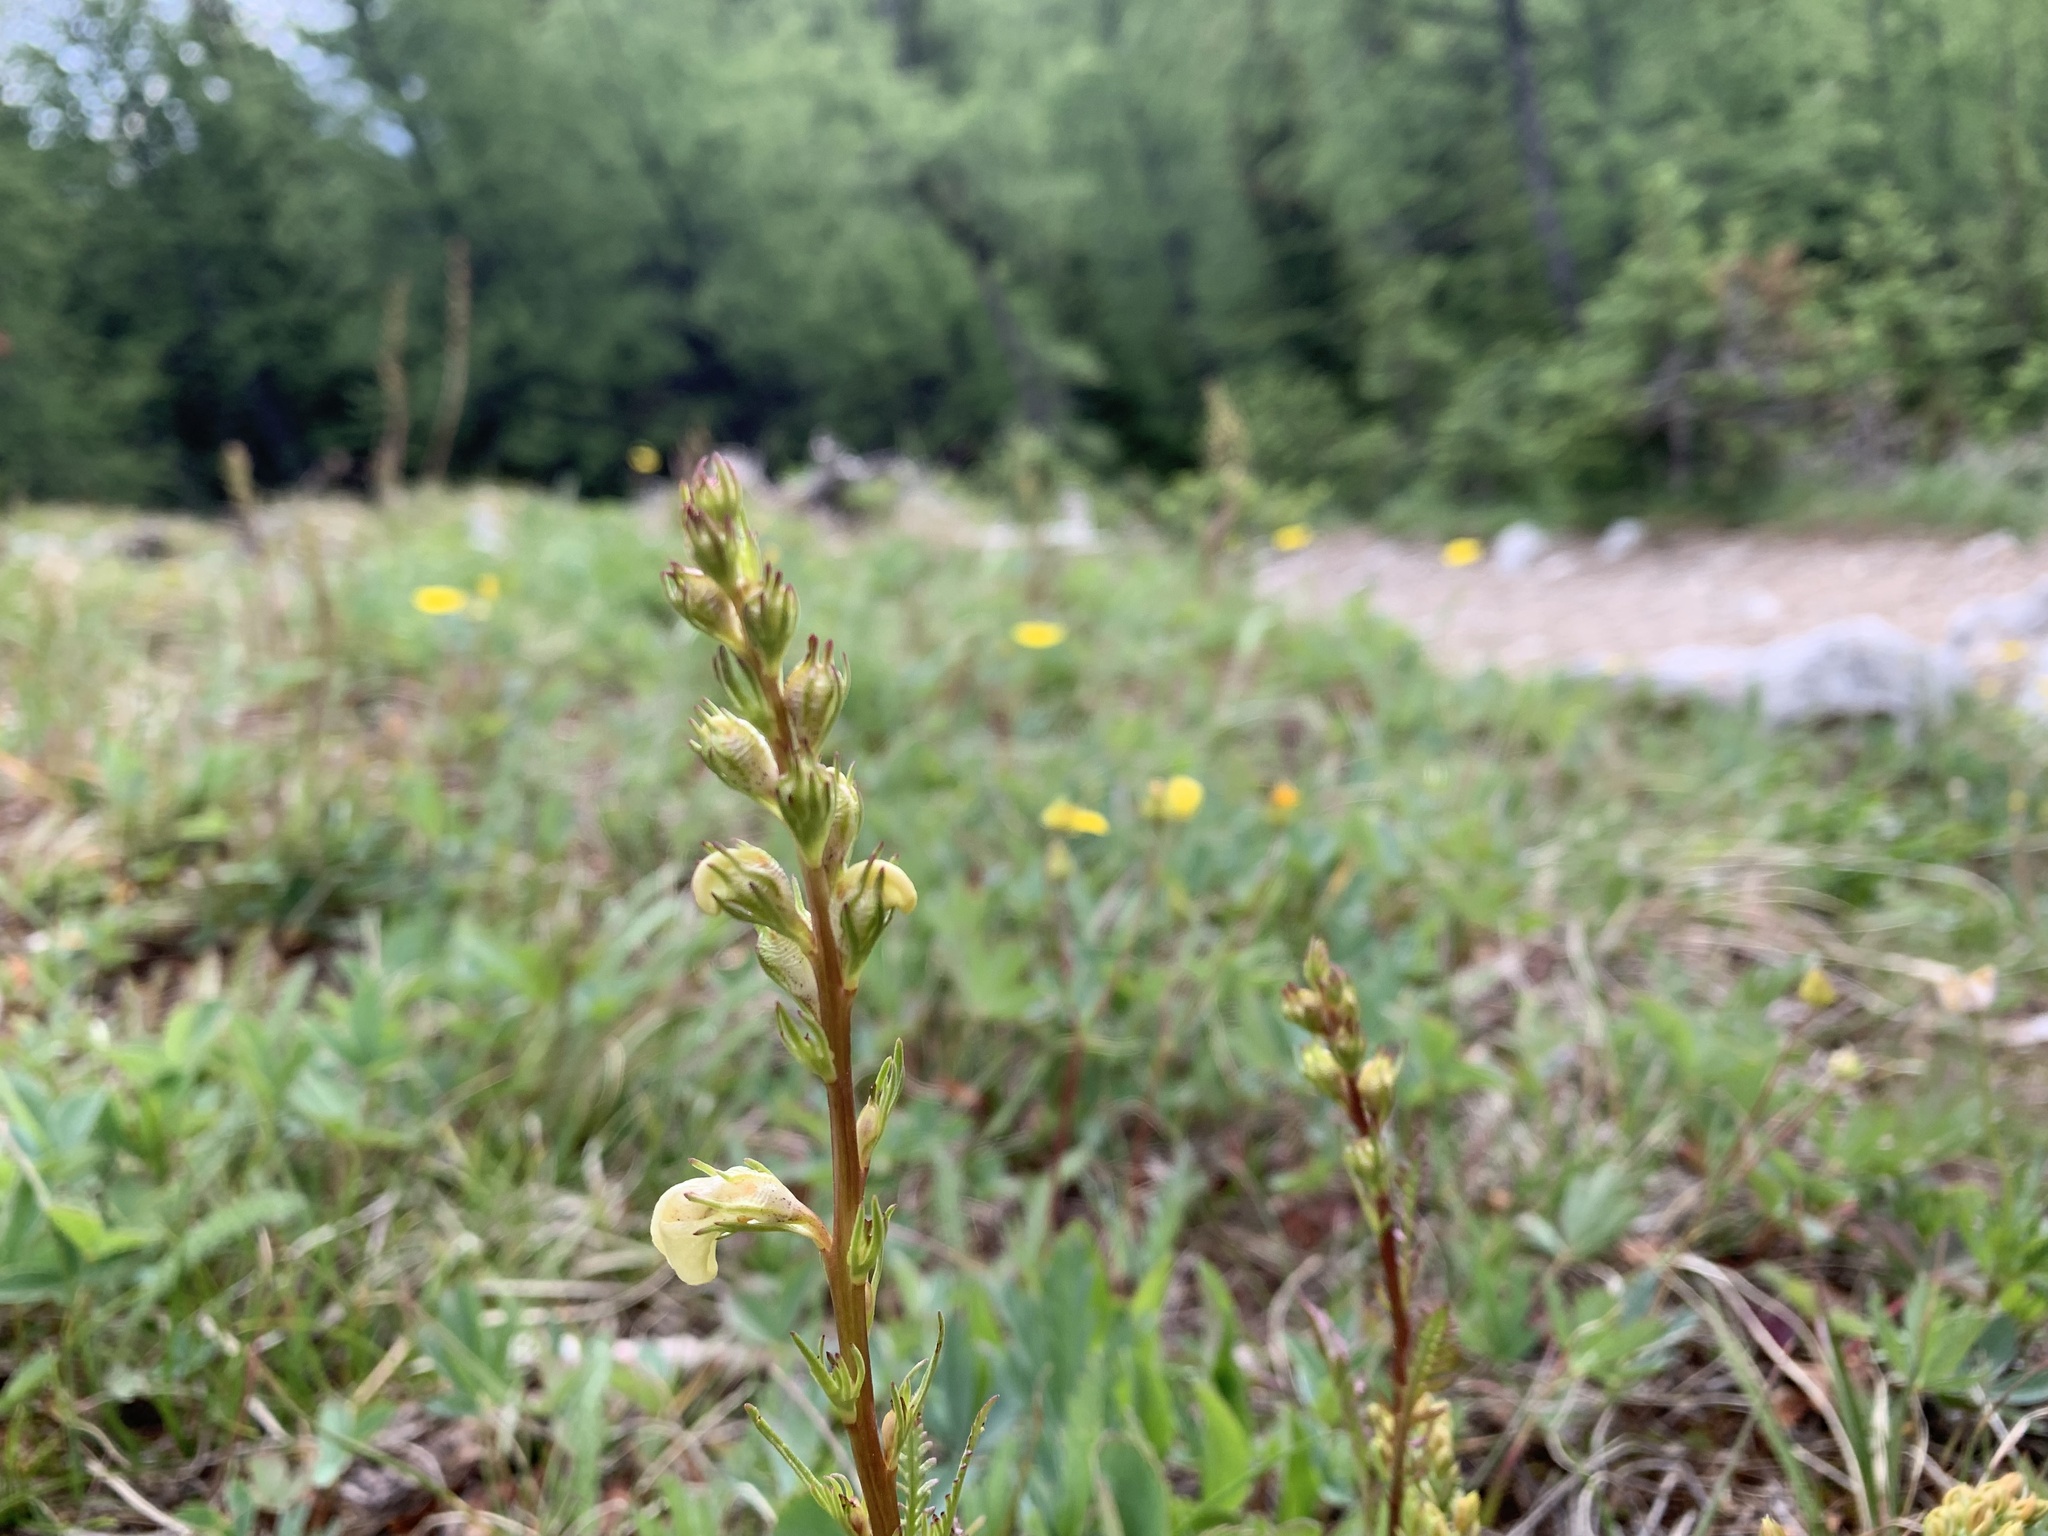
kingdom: Plantae
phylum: Tracheophyta
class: Magnoliopsida
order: Lamiales
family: Orobanchaceae
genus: Pedicularis
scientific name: Pedicularis contorta
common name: Coiled lousewort
